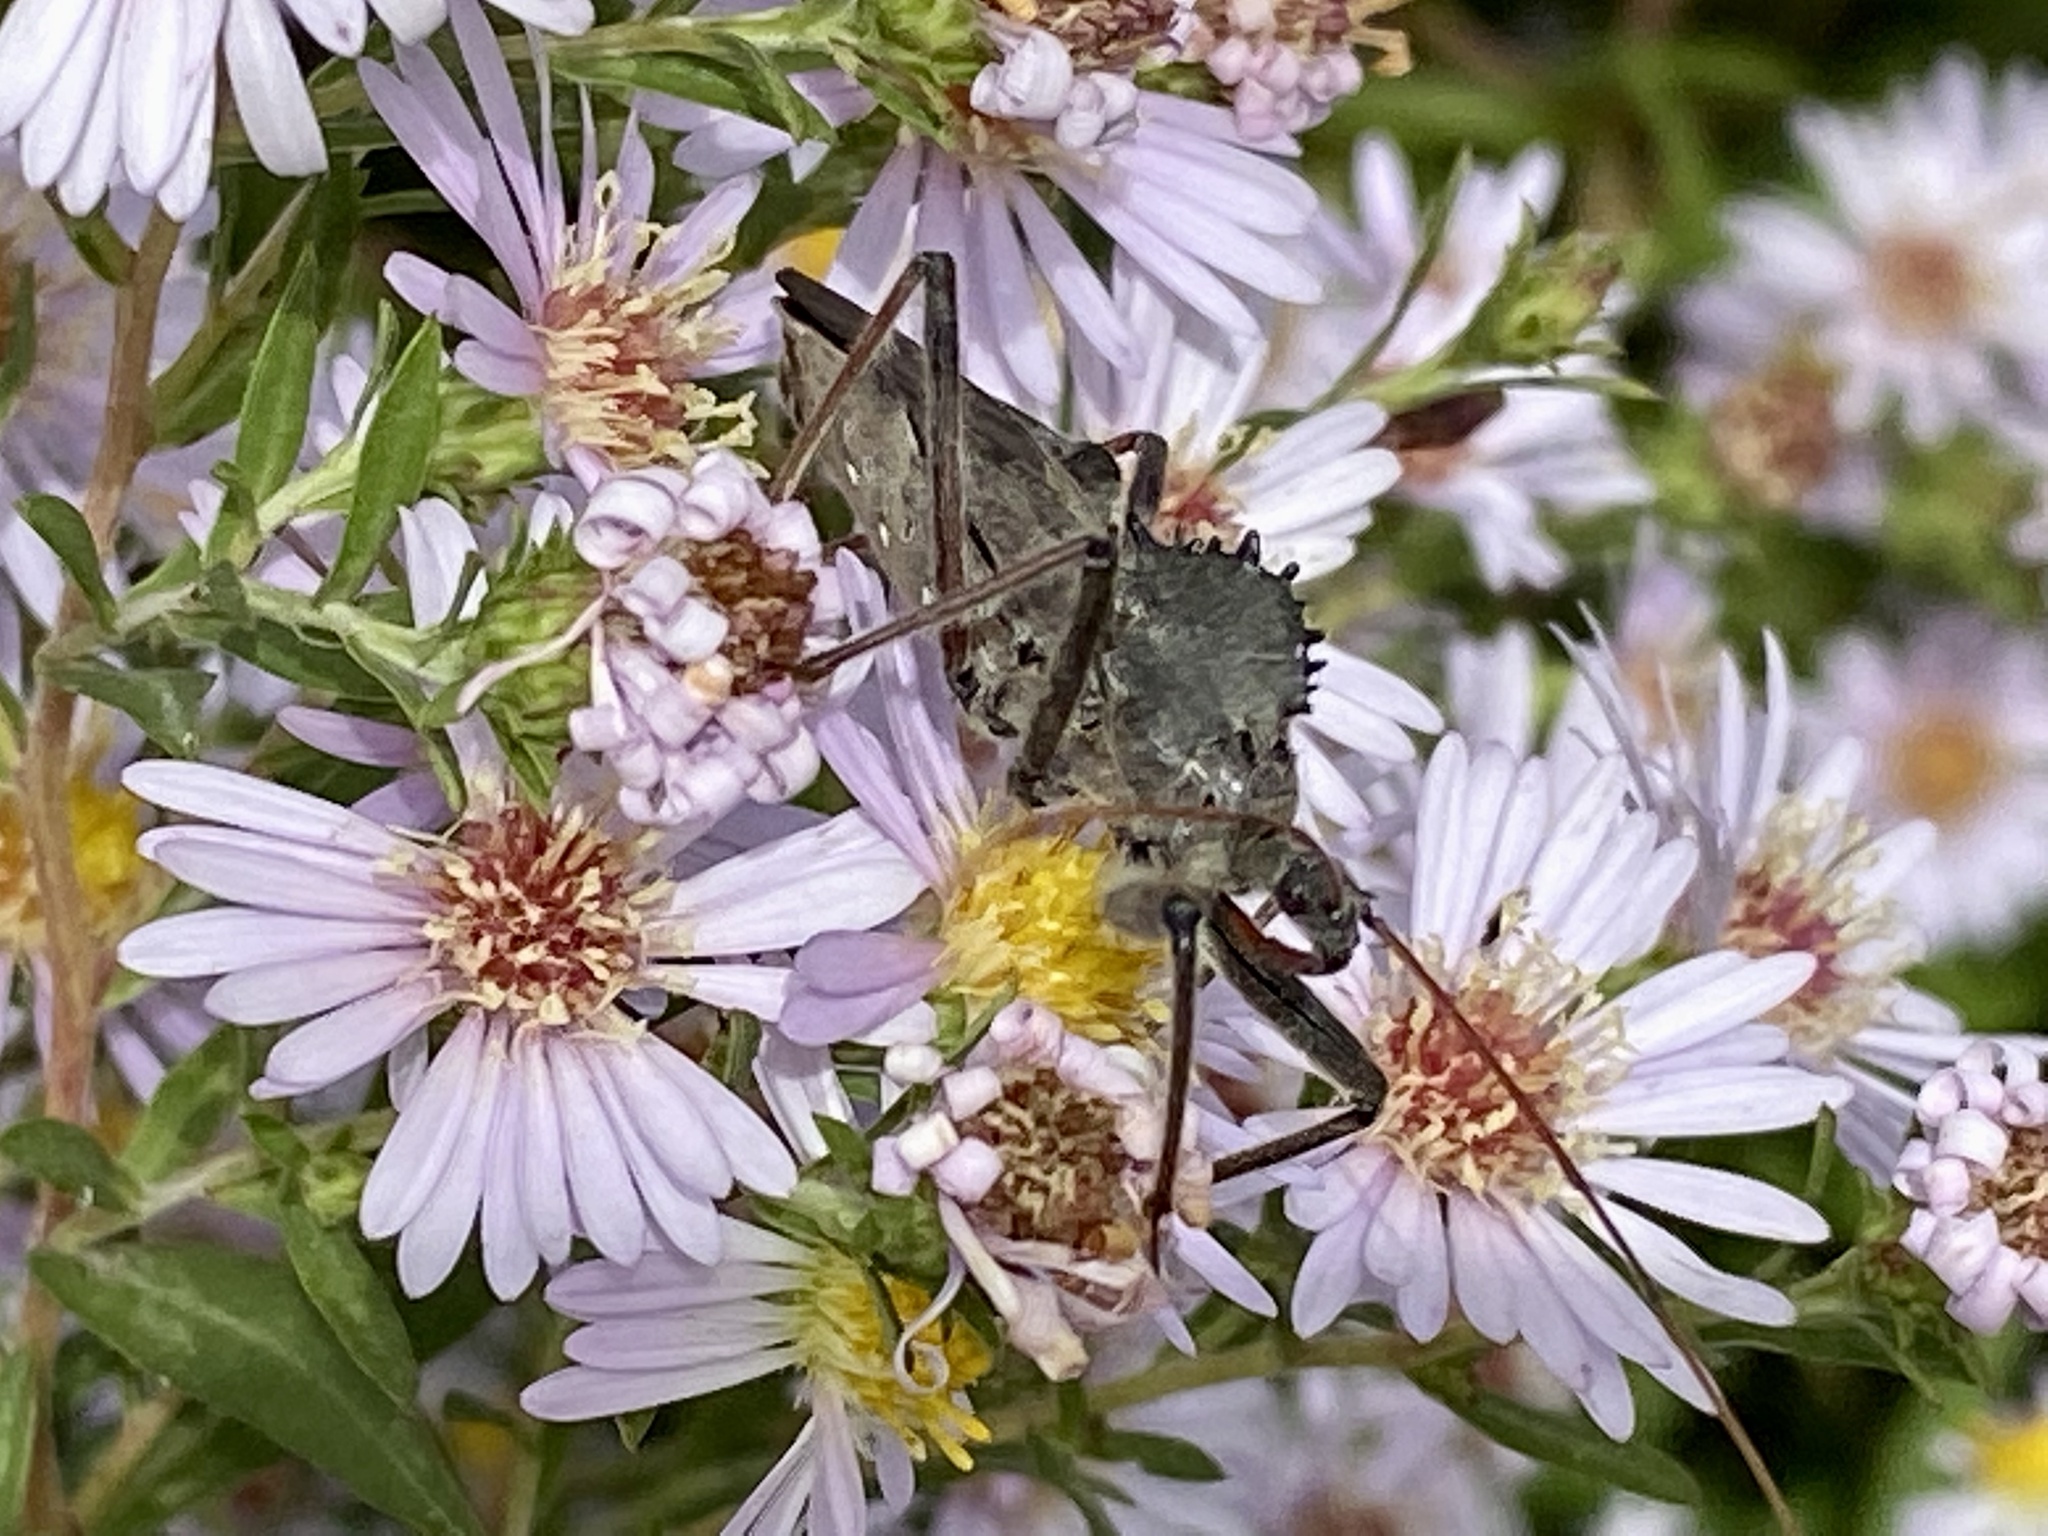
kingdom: Animalia
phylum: Arthropoda
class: Insecta
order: Hemiptera
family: Reduviidae
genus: Arilus
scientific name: Arilus cristatus
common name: North american wheel bug
